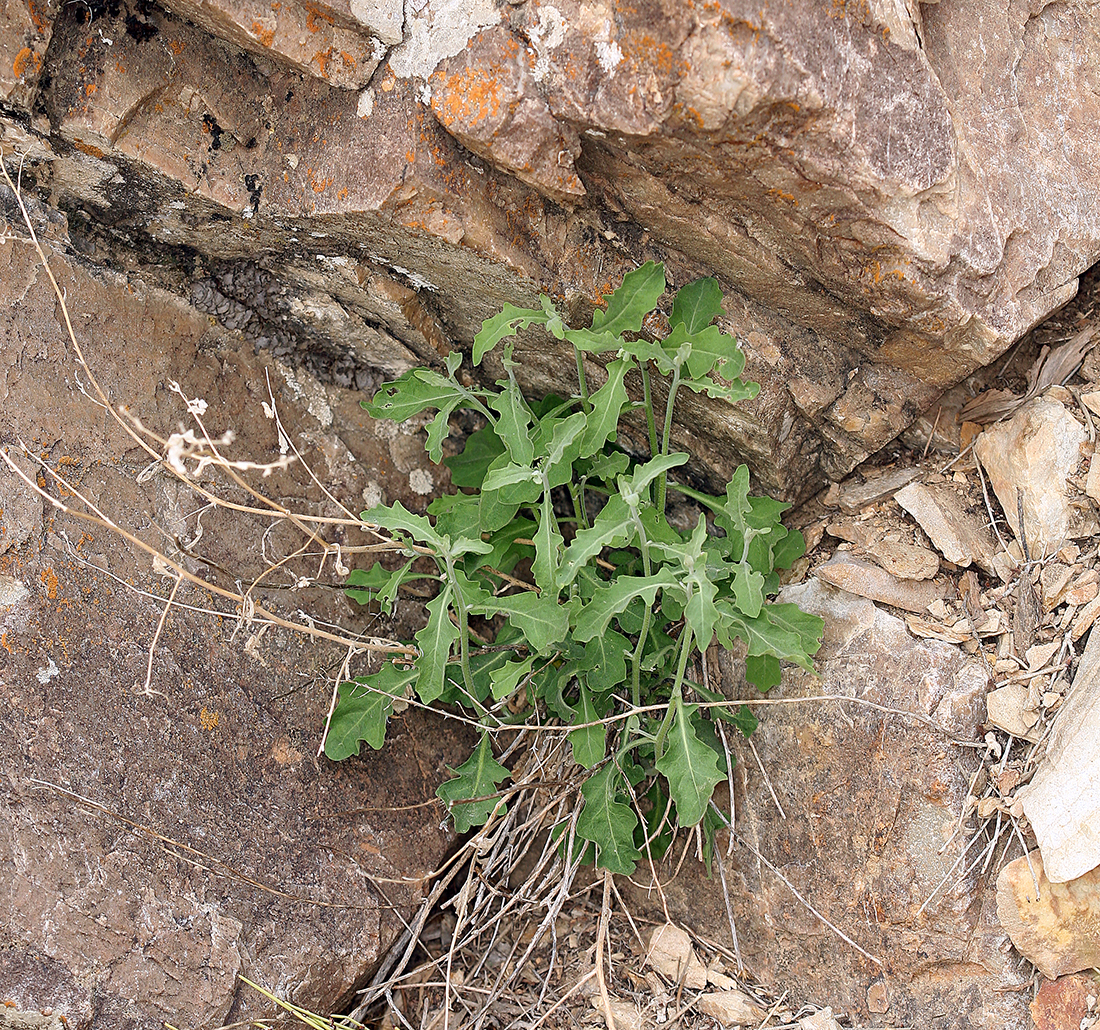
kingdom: Plantae
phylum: Tracheophyta
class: Magnoliopsida
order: Brassicales
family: Brassicaceae
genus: Halimolobos
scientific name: Halimolobos jaegeri
